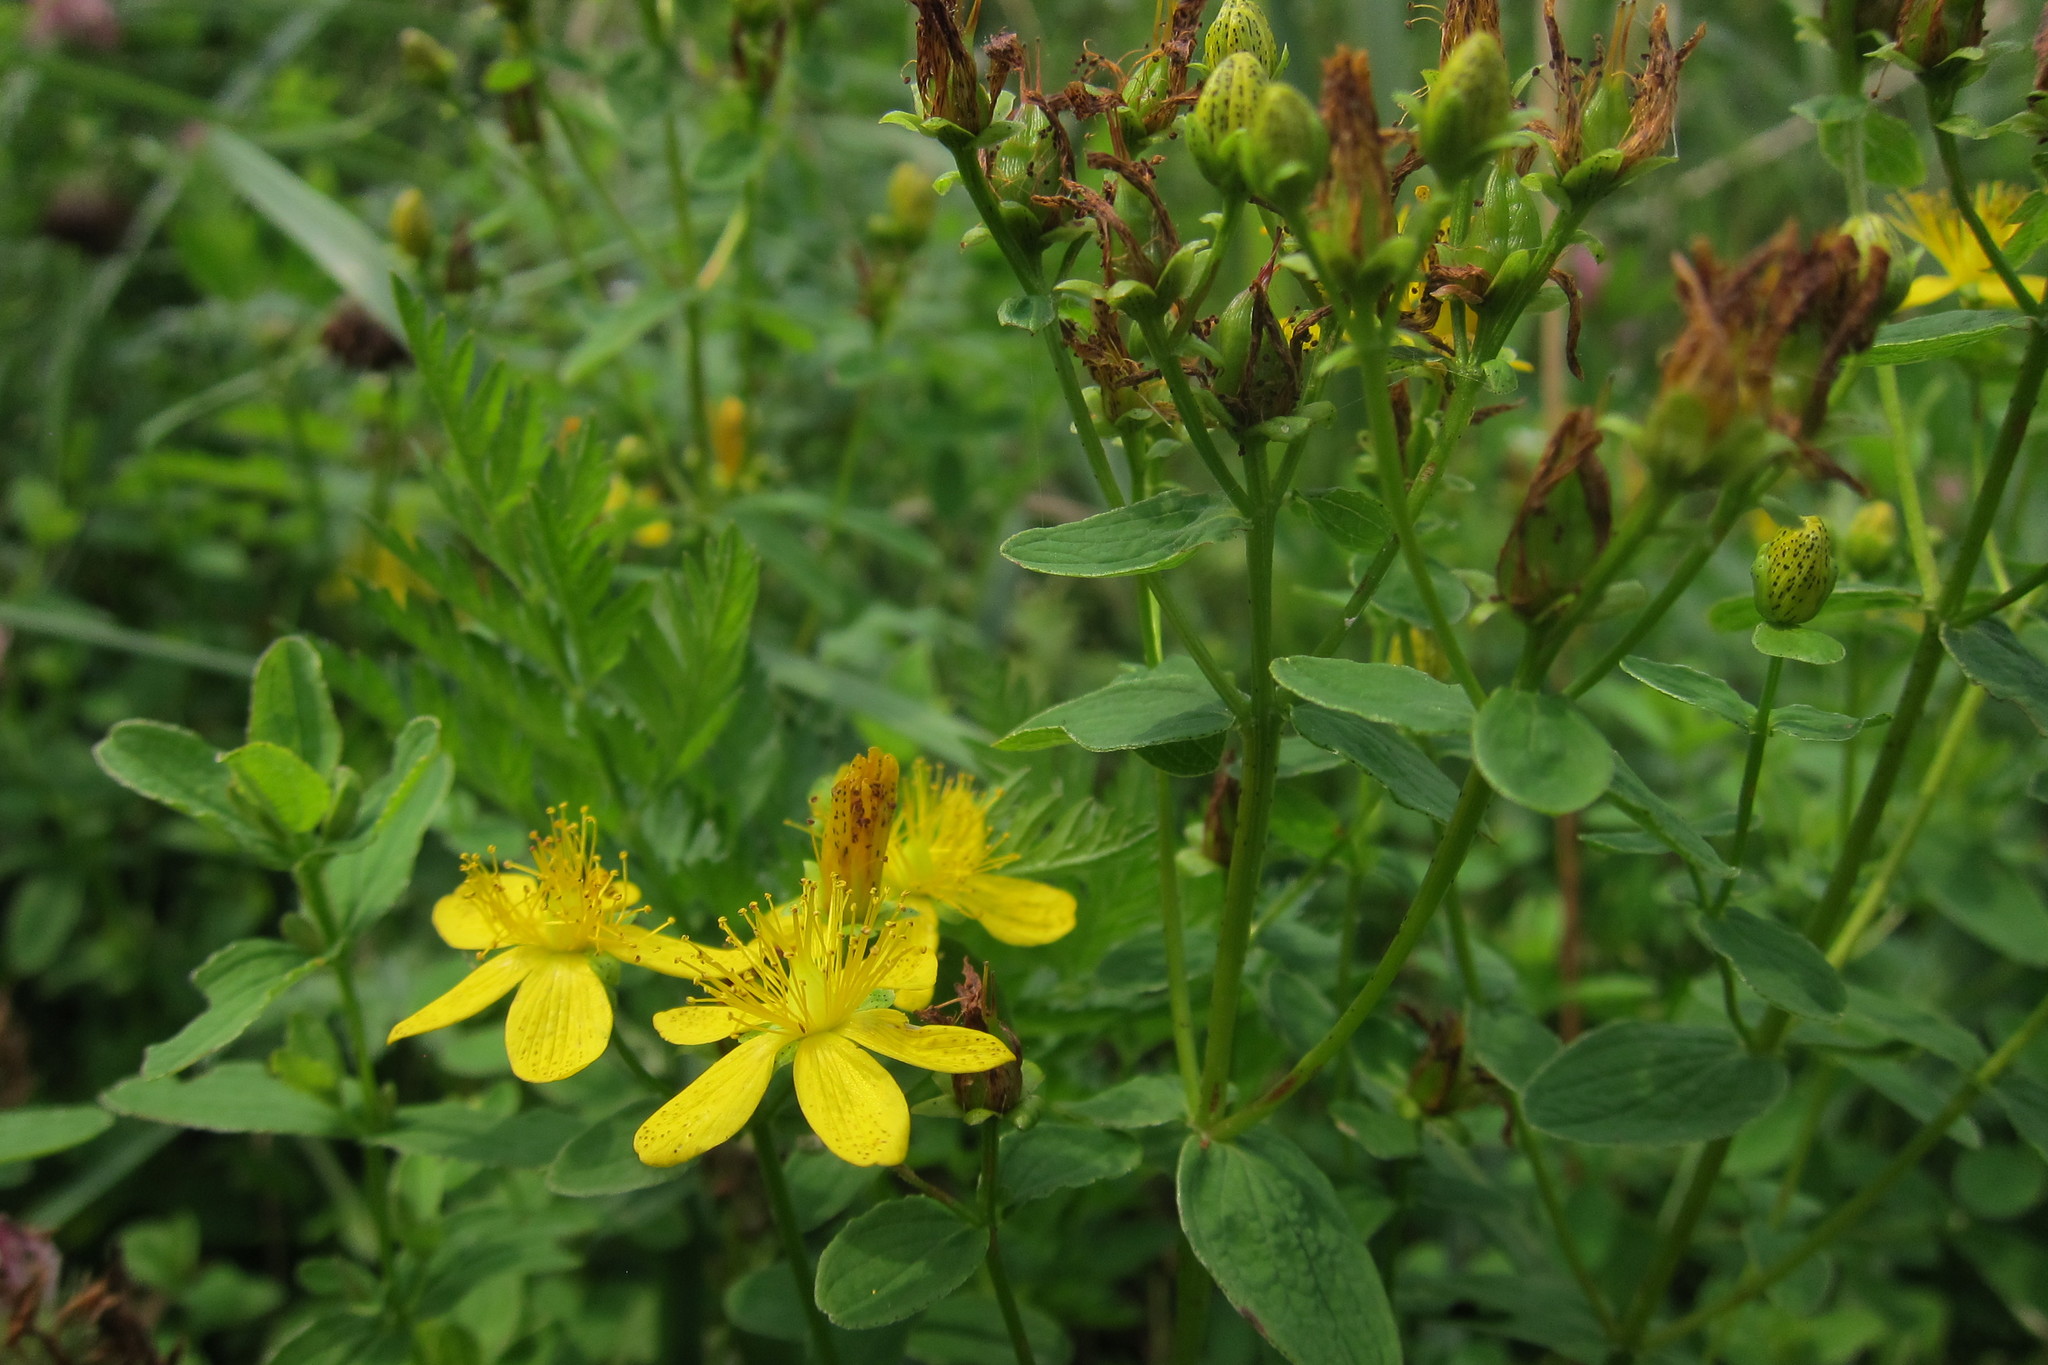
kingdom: Plantae
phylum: Tracheophyta
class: Magnoliopsida
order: Malpighiales
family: Hypericaceae
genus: Hypericum
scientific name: Hypericum maculatum
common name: Imperforate st. john's-wort
